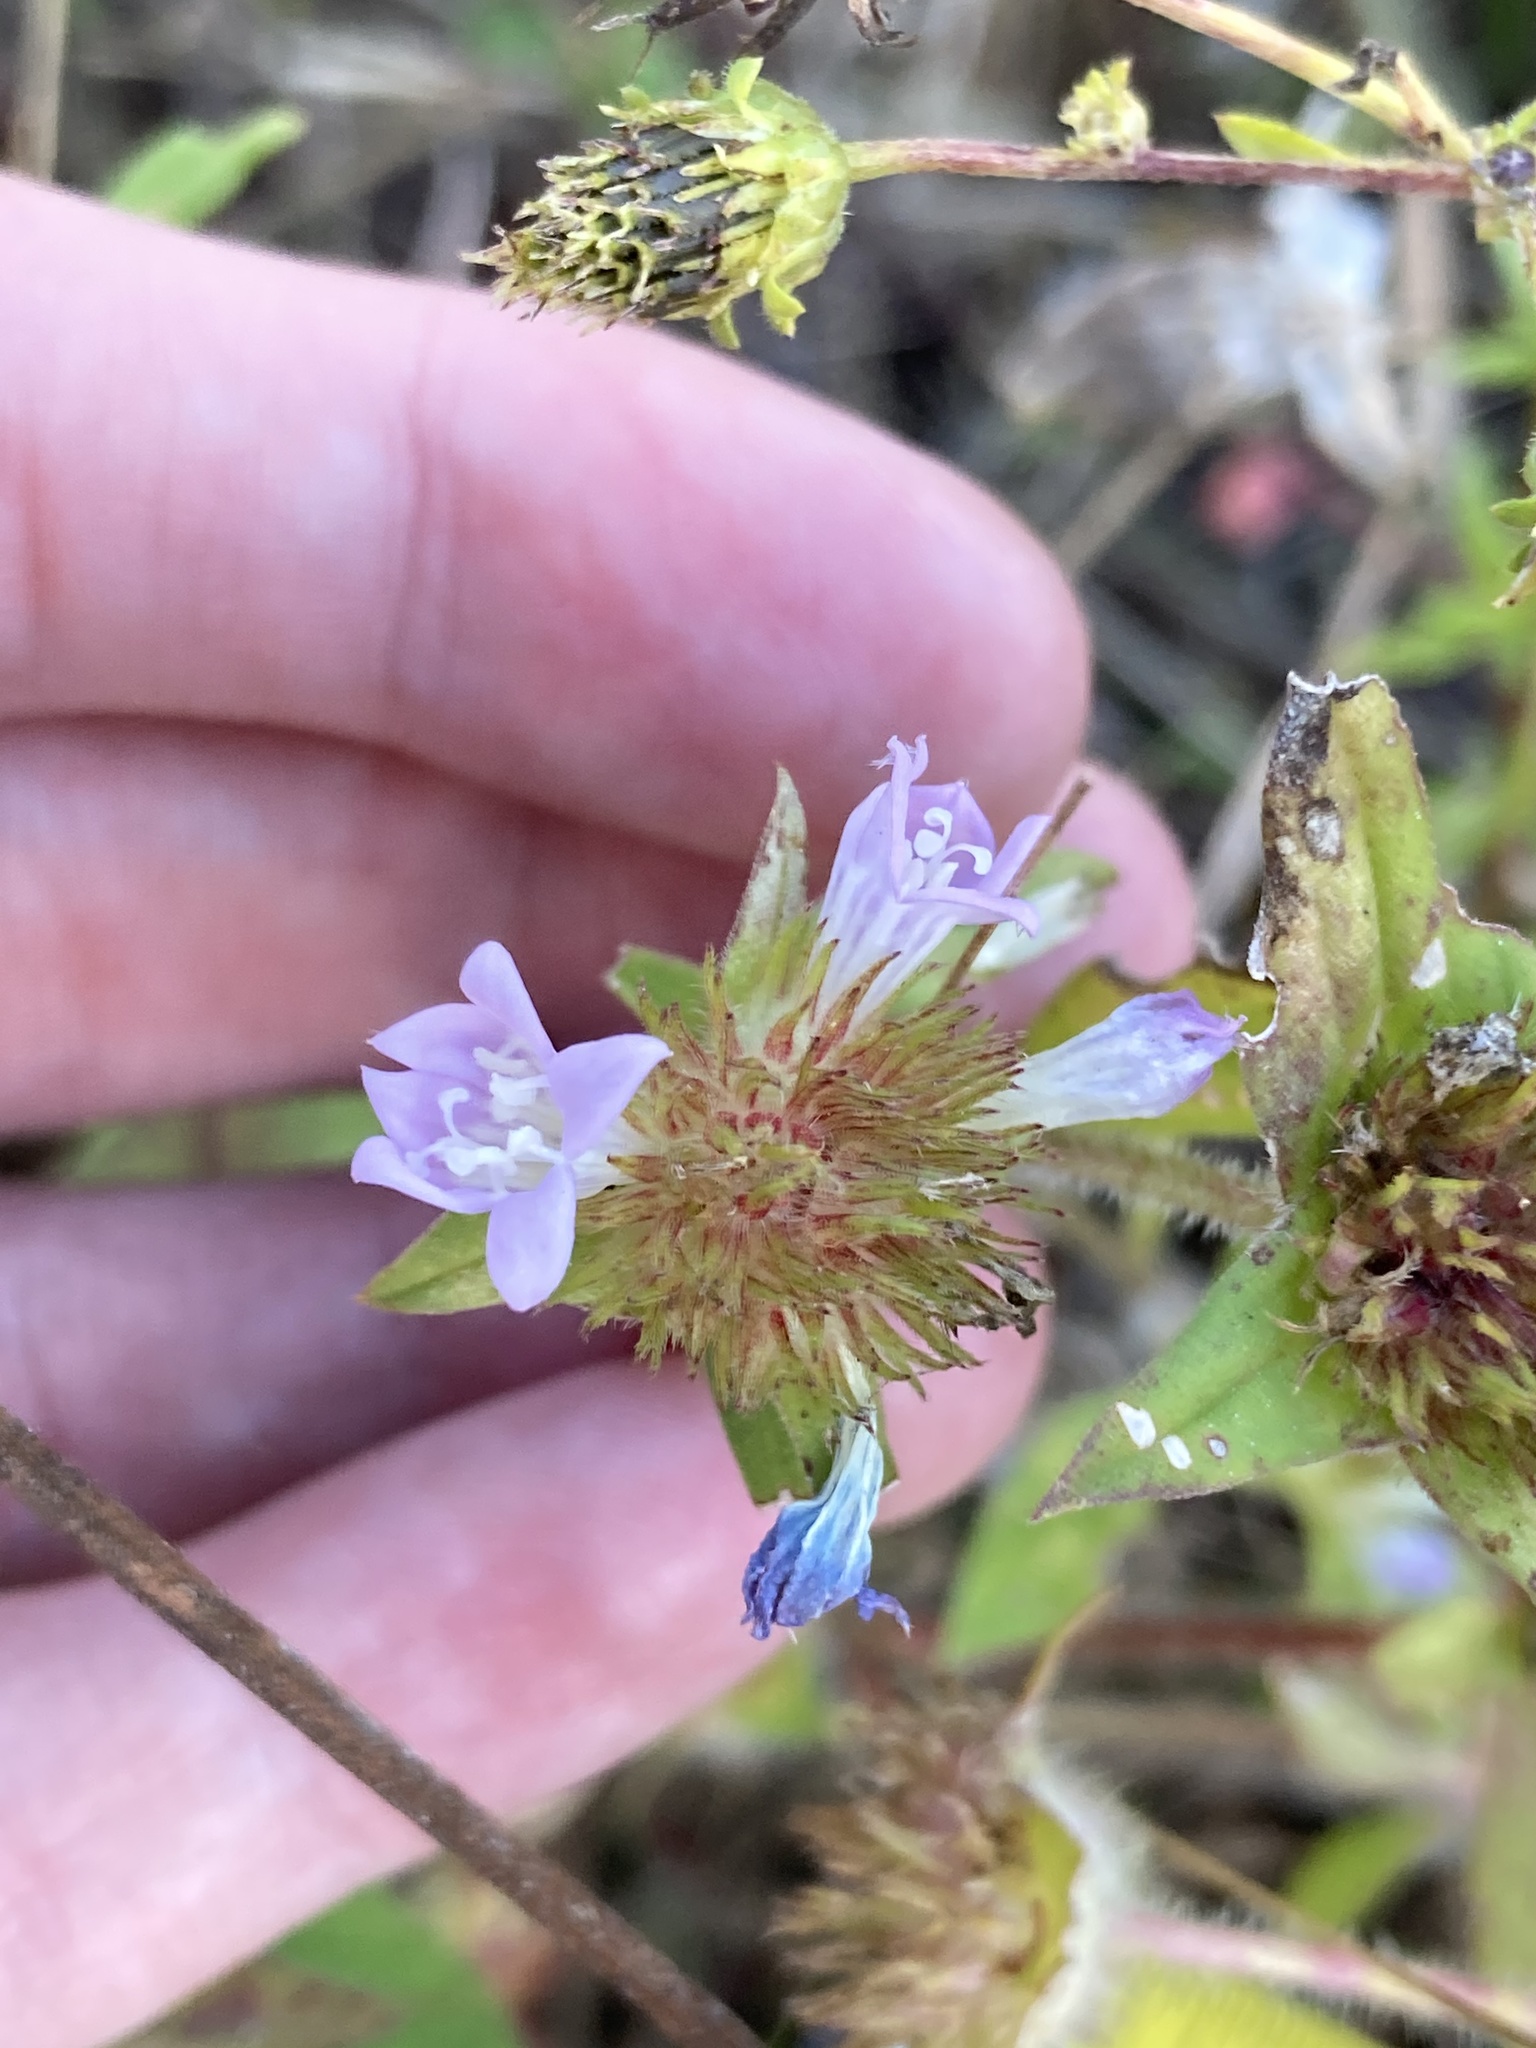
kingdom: Plantae
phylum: Tracheophyta
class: Magnoliopsida
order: Gentianales
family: Rubiaceae
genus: Richardia
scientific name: Richardia grandiflora
